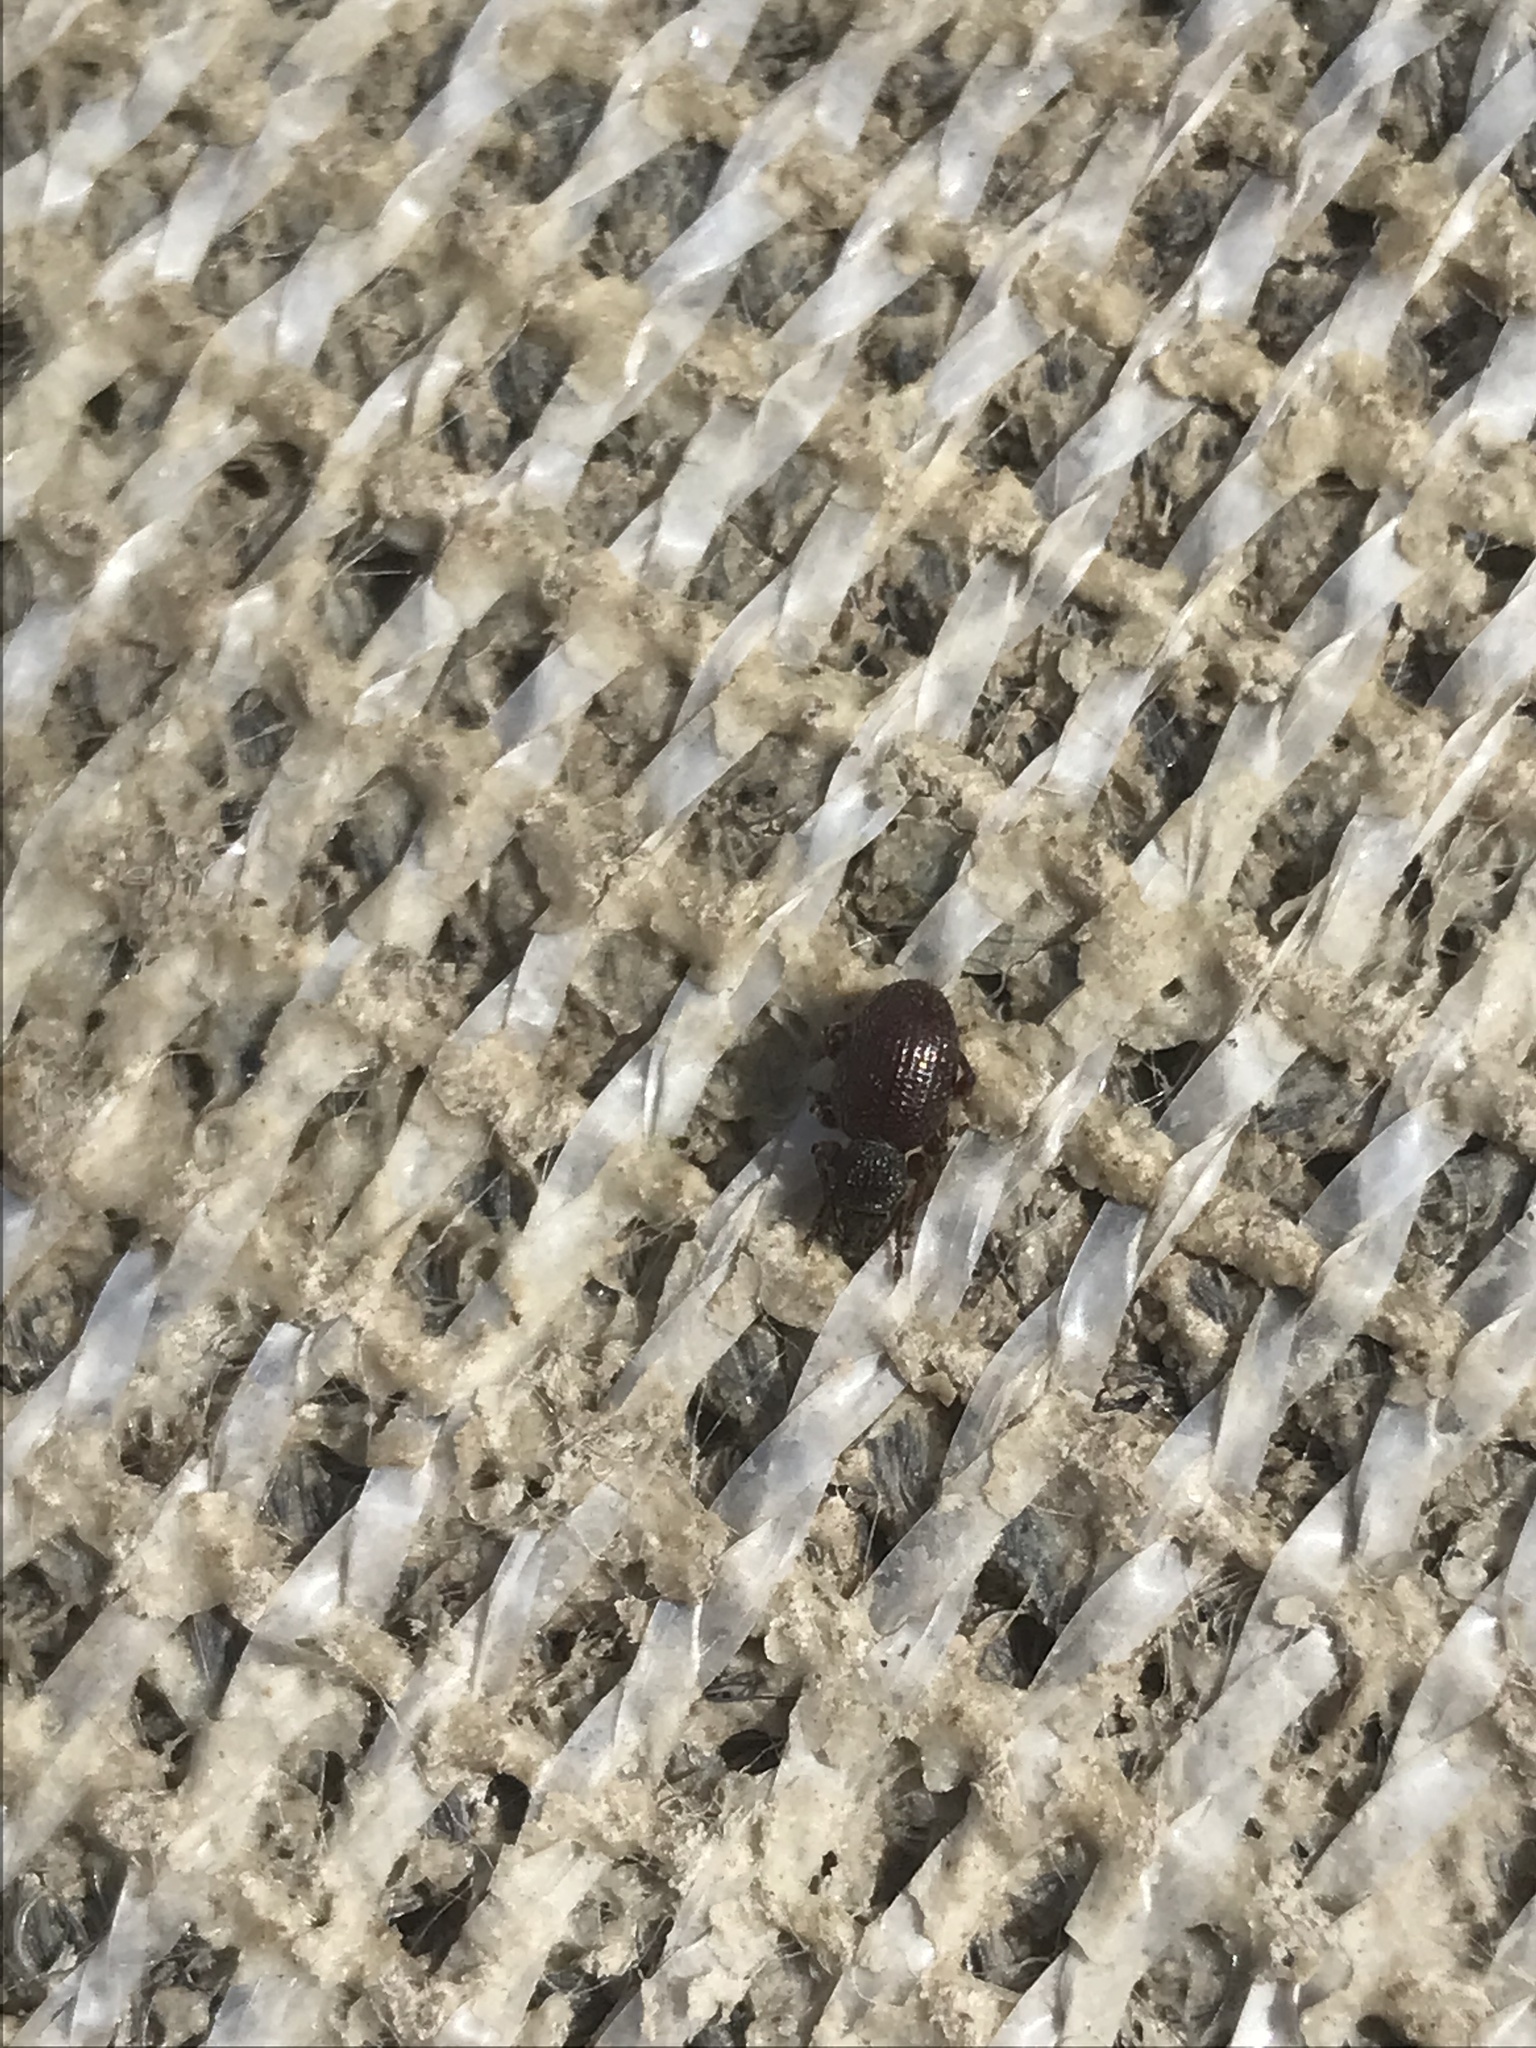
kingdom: Animalia
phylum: Arthropoda
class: Insecta
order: Coleoptera
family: Curculionidae
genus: Otiorhynchus
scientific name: Otiorhynchus ovatus
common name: Strawberry root weevil
